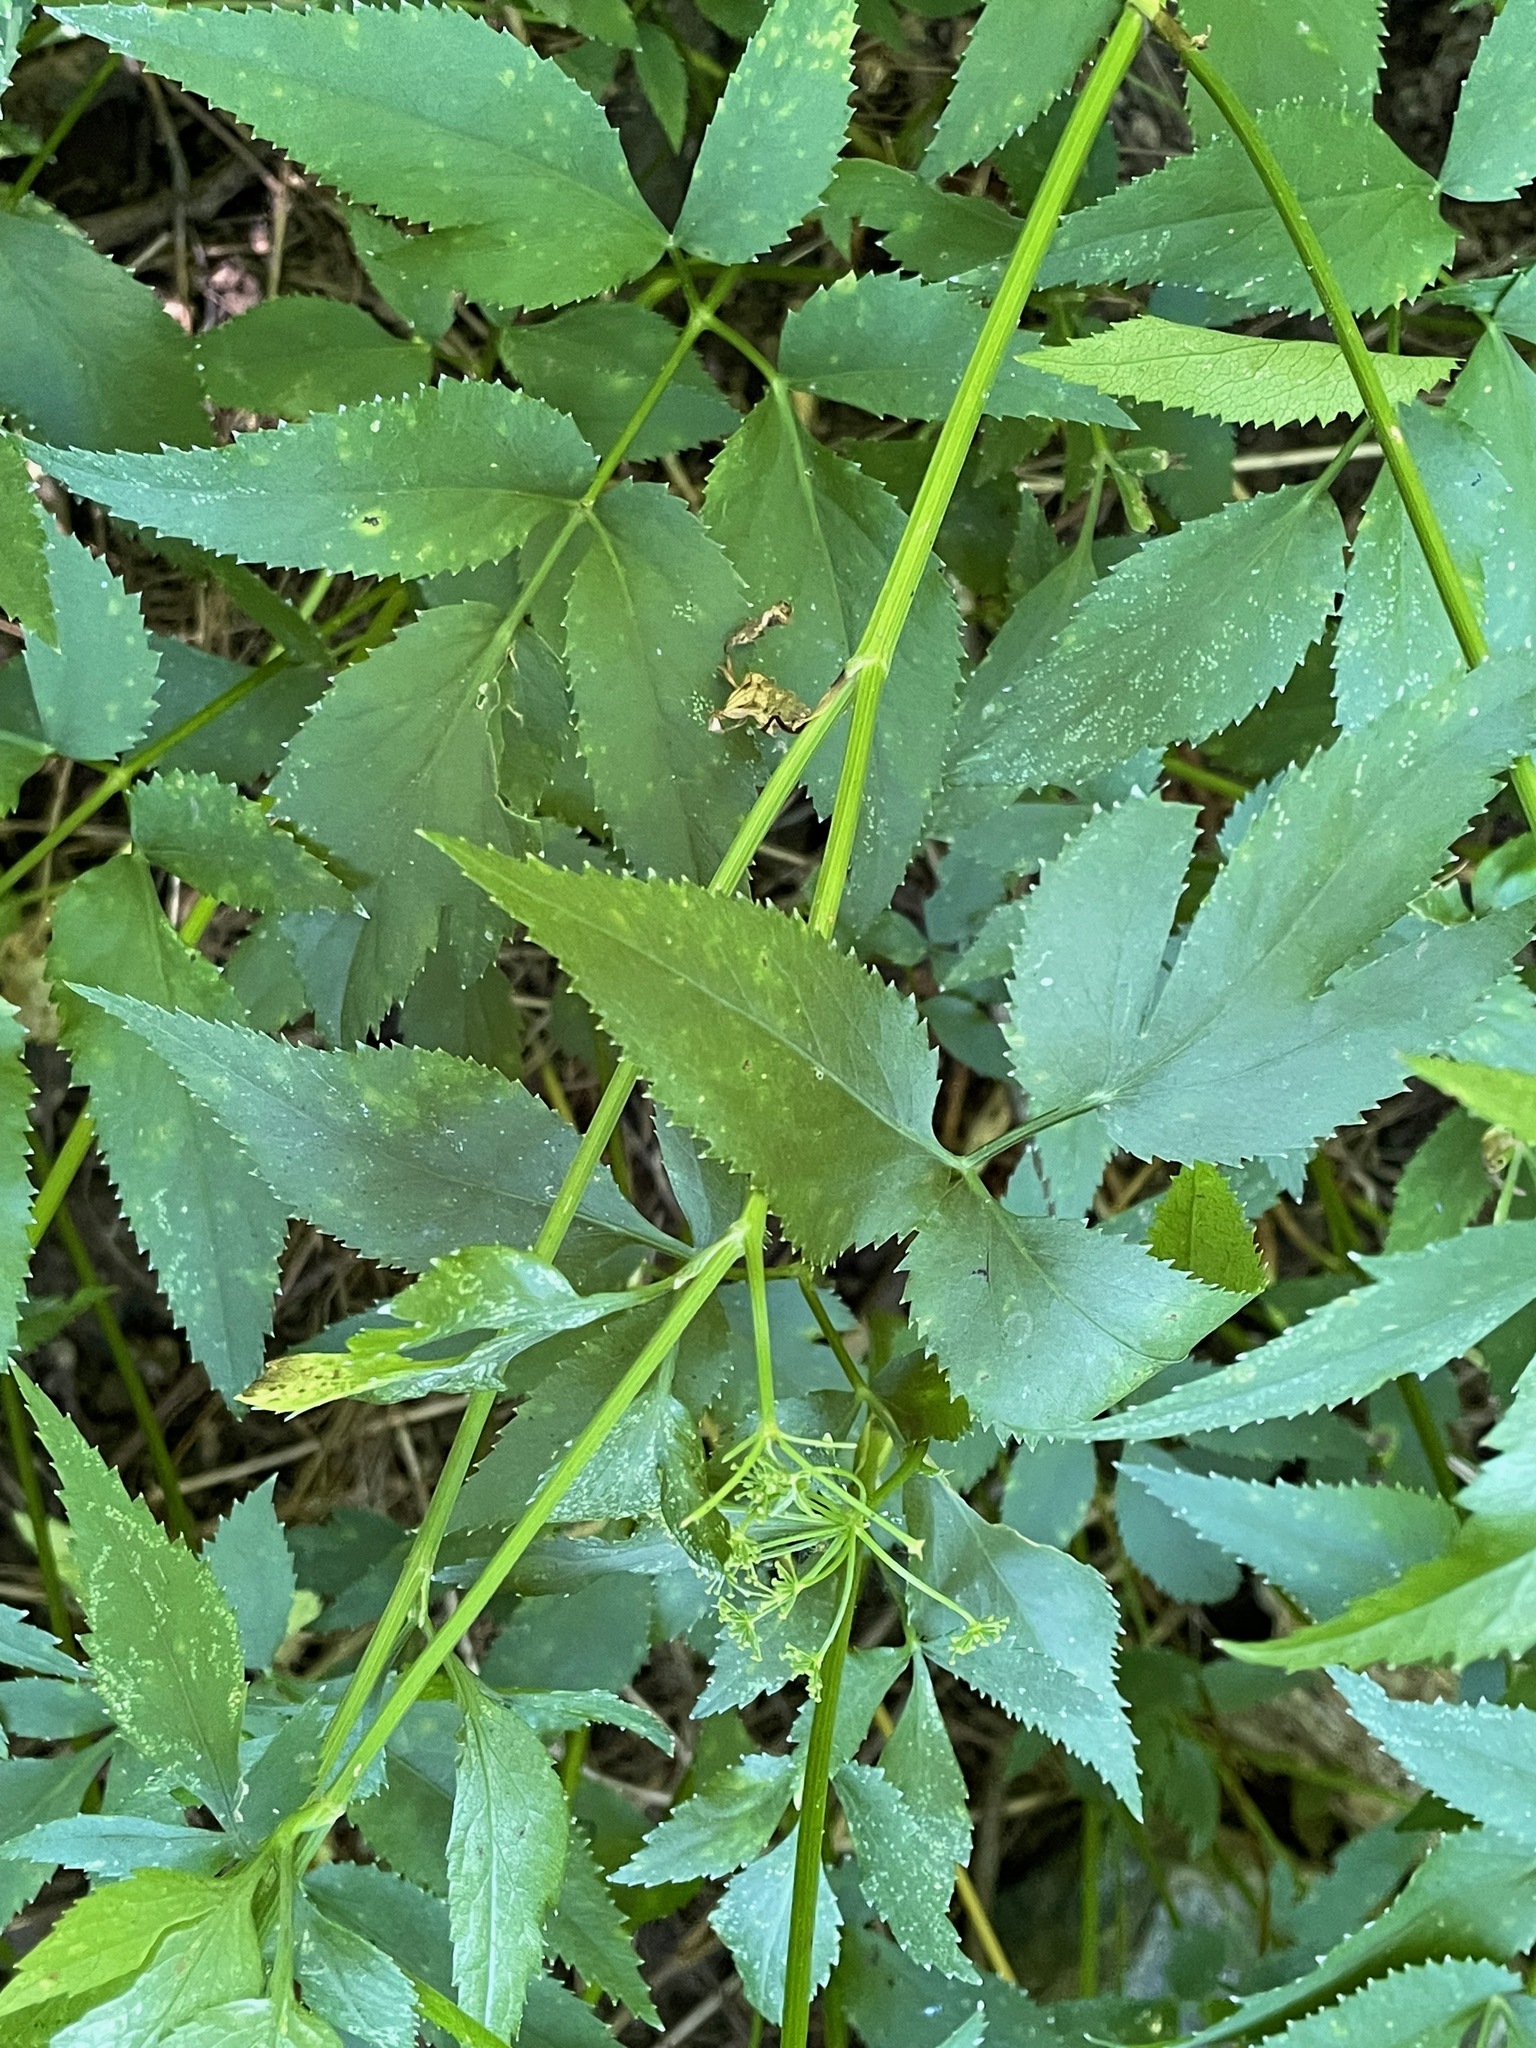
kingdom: Plantae
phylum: Tracheophyta
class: Magnoliopsida
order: Apiales
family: Apiaceae
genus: Zizia
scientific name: Zizia aurea
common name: Golden alexanders
